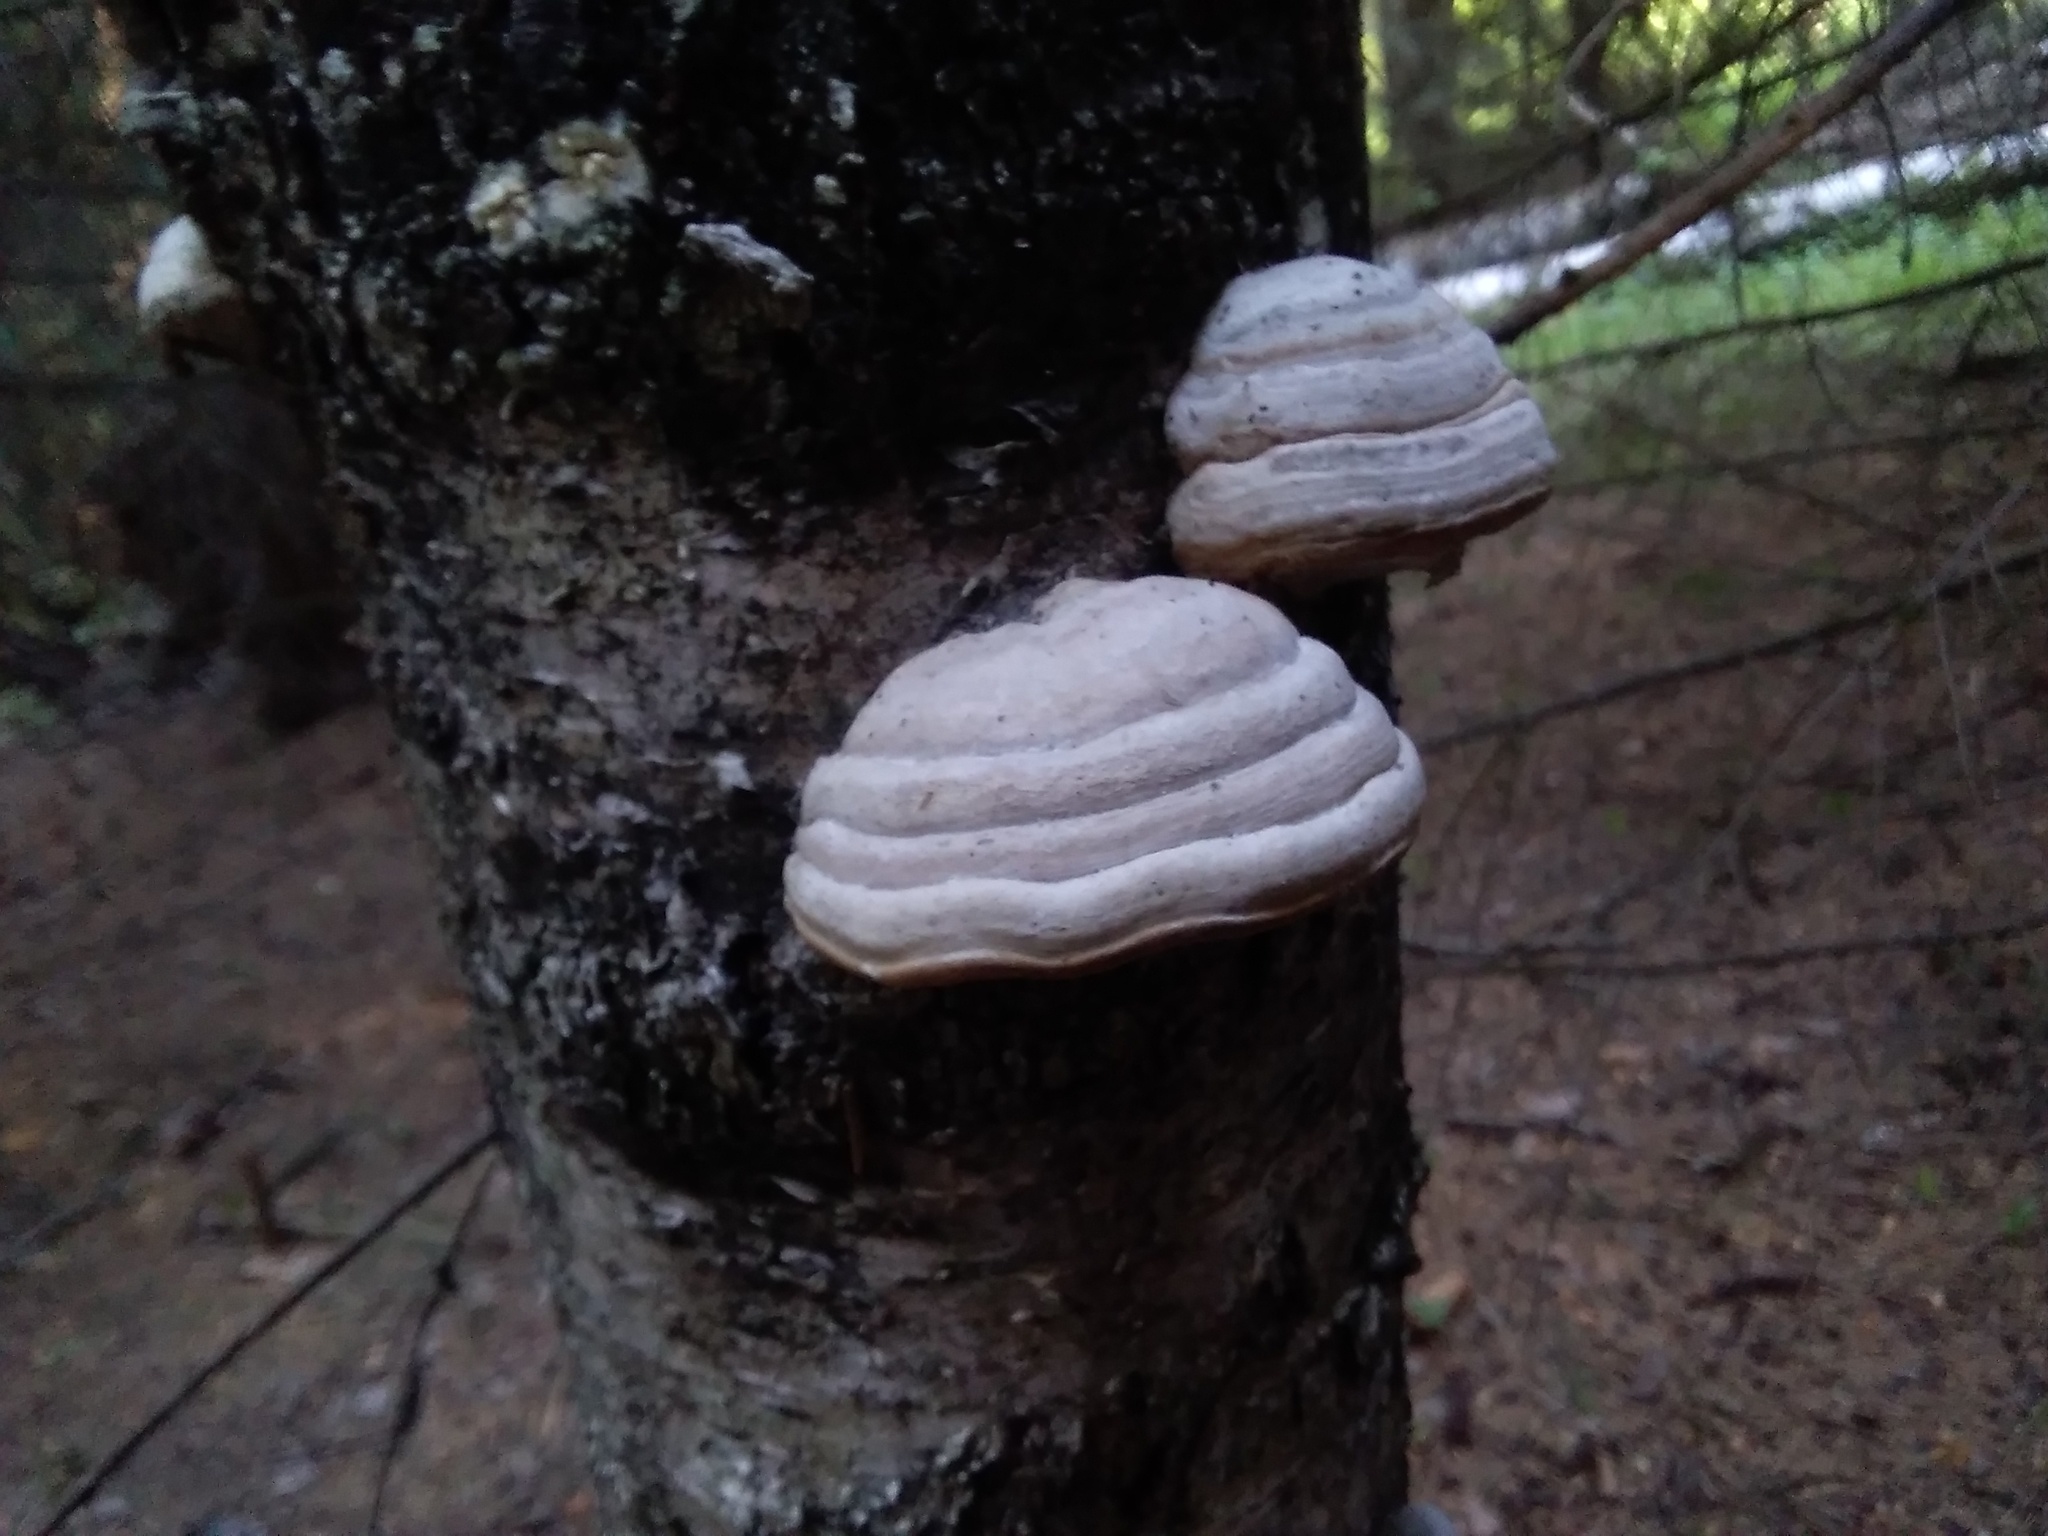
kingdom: Fungi
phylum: Basidiomycota
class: Agaricomycetes
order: Polyporales
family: Polyporaceae
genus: Fomes
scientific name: Fomes fomentarius
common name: Hoof fungus
